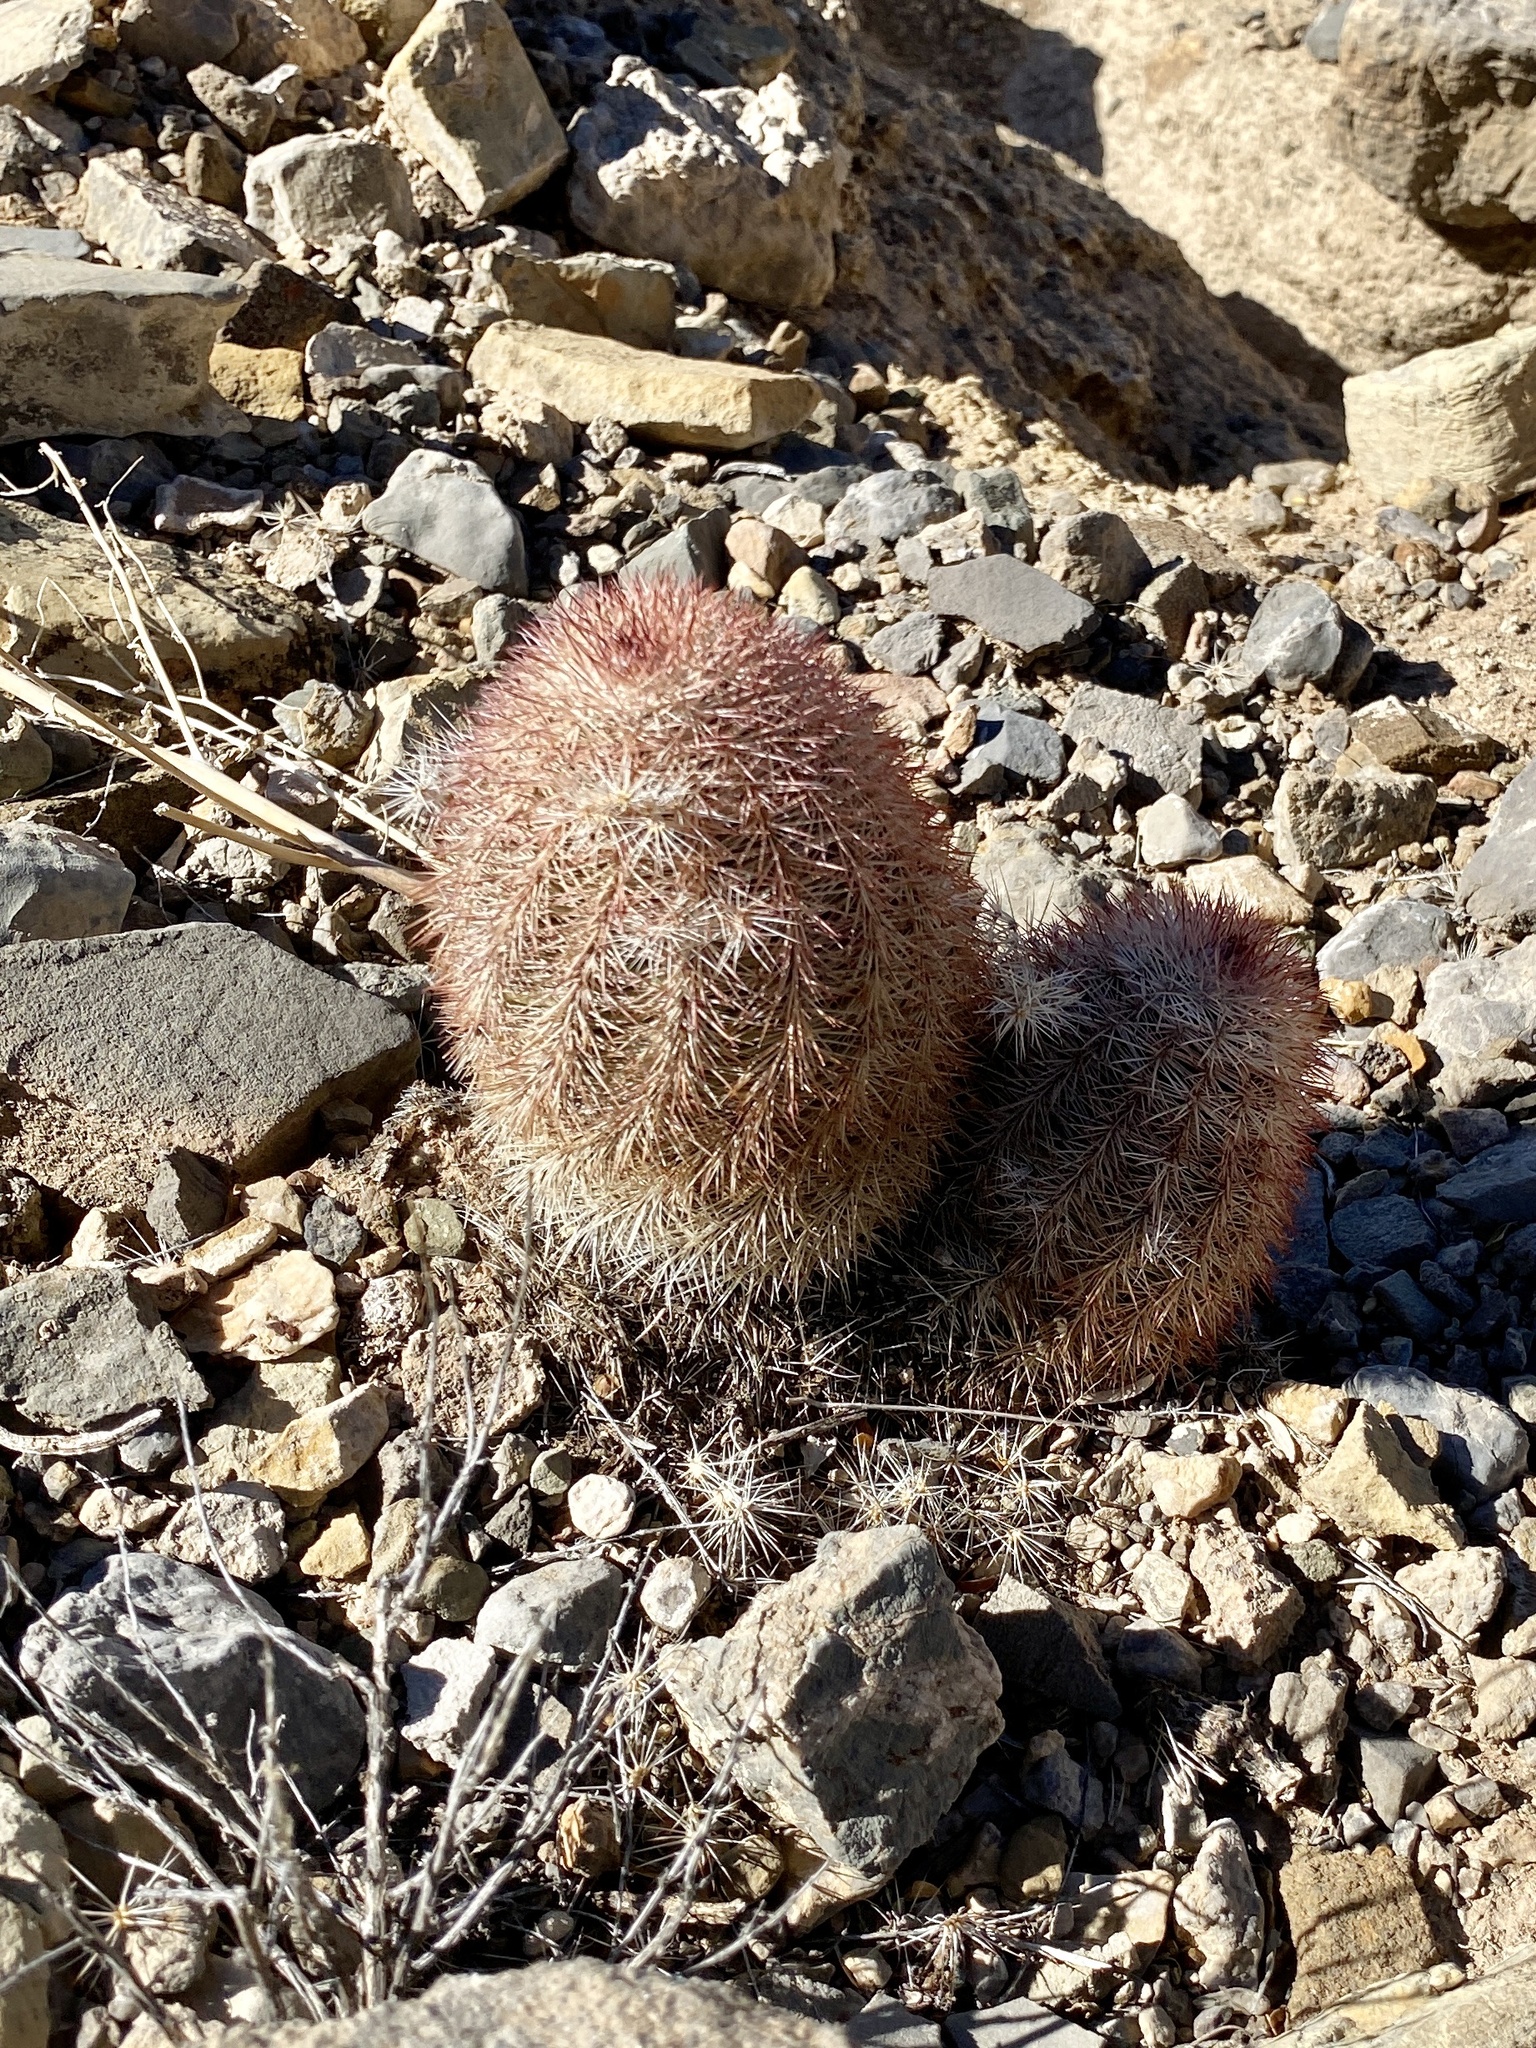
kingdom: Plantae
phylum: Tracheophyta
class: Magnoliopsida
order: Caryophyllales
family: Cactaceae
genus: Echinocereus
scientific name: Echinocereus dasyacanthus
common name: Spiny hedgehog cactus
